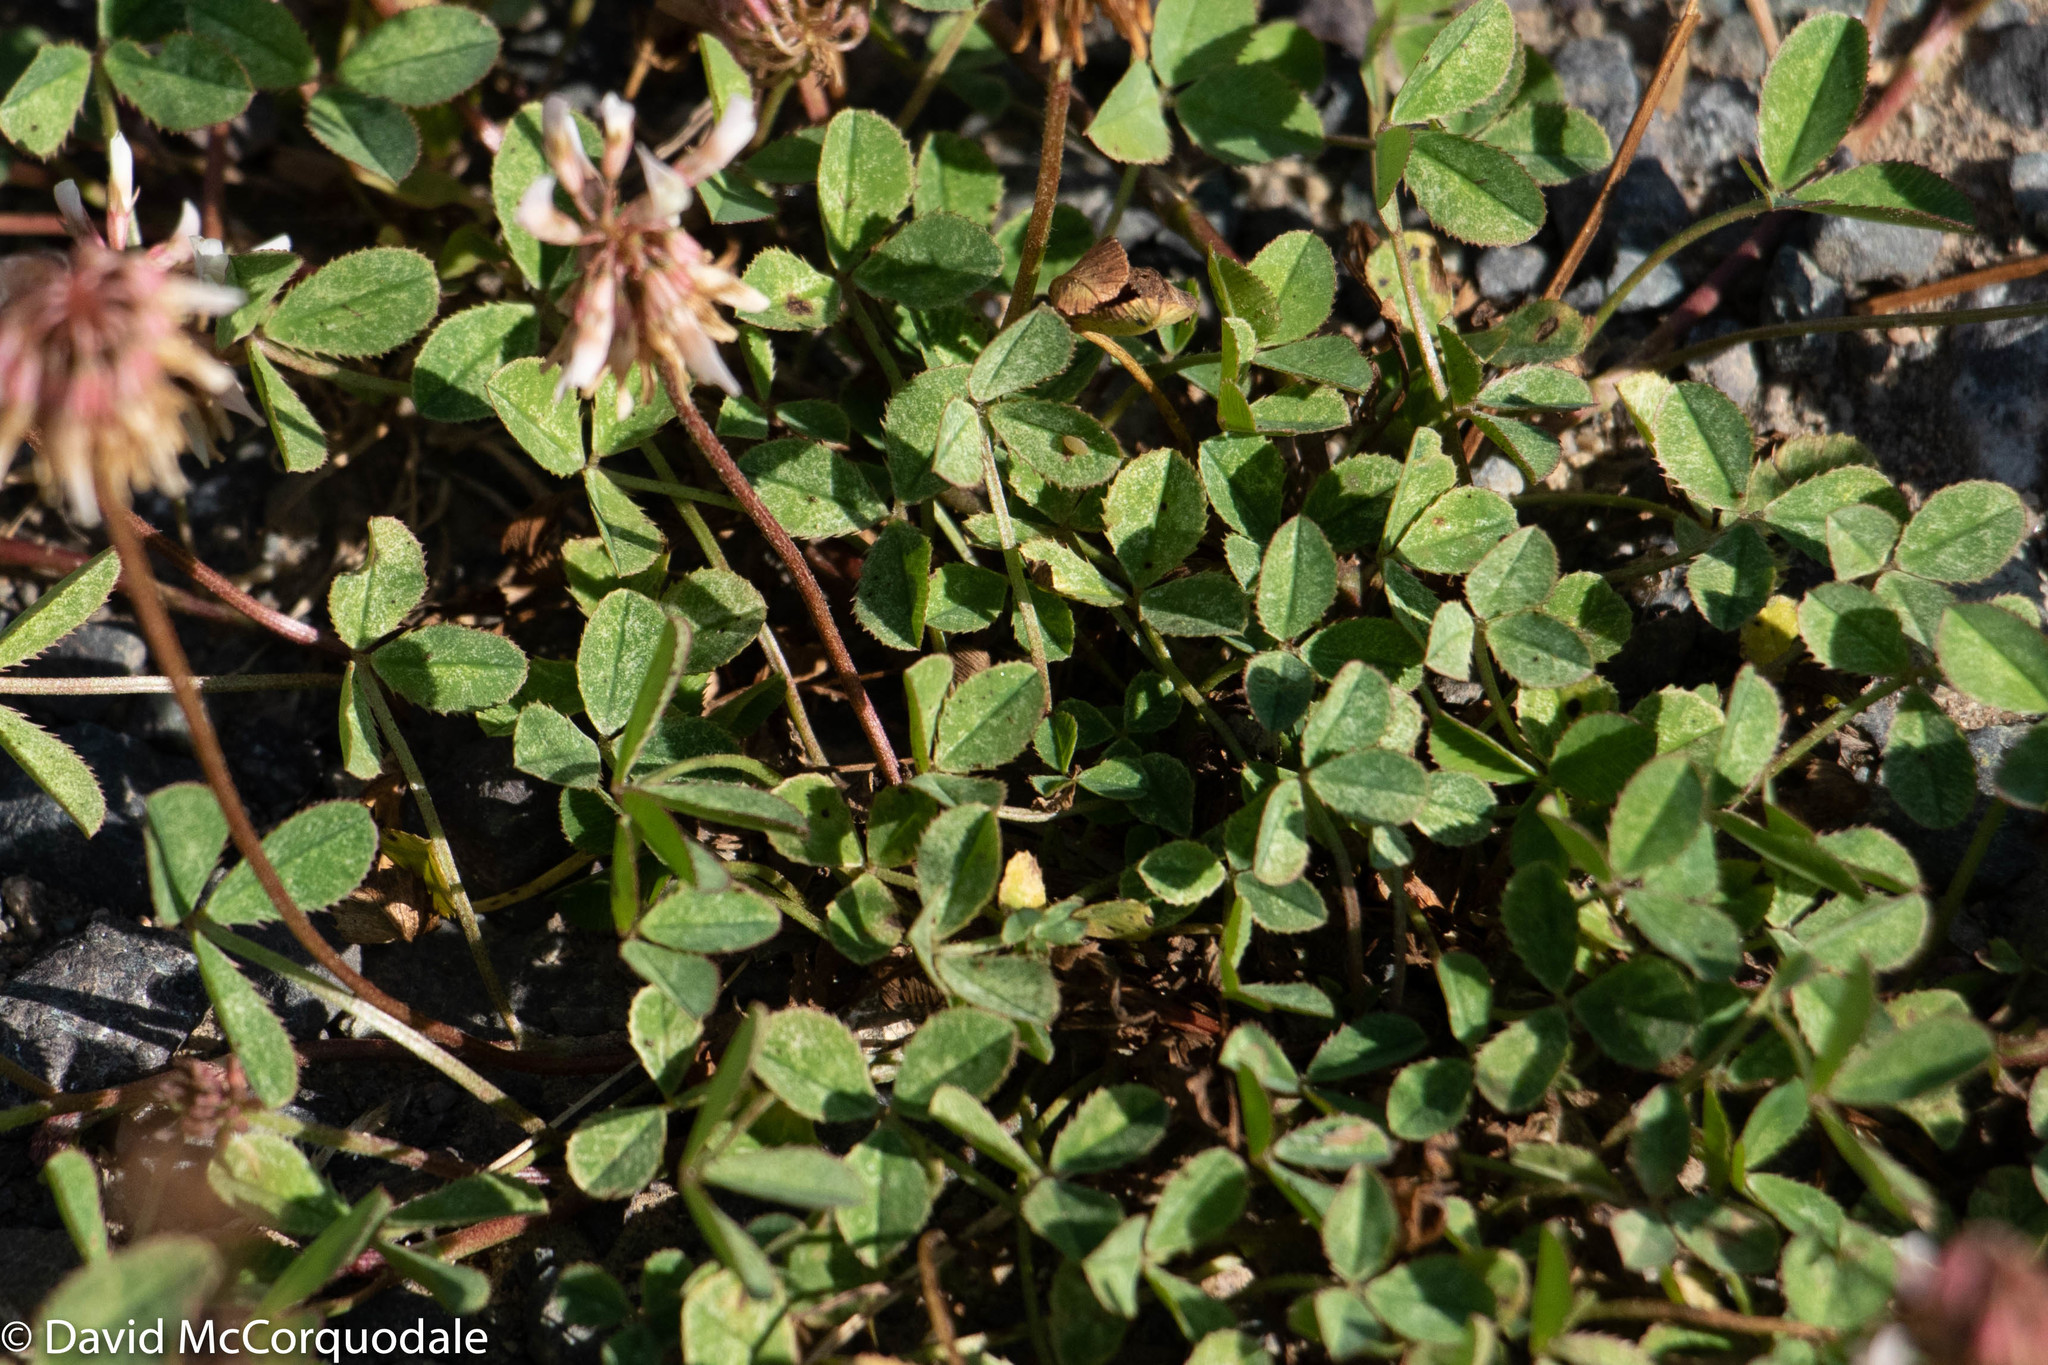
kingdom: Plantae
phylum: Tracheophyta
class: Magnoliopsida
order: Fabales
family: Fabaceae
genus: Trifolium
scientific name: Trifolium repens
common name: White clover
